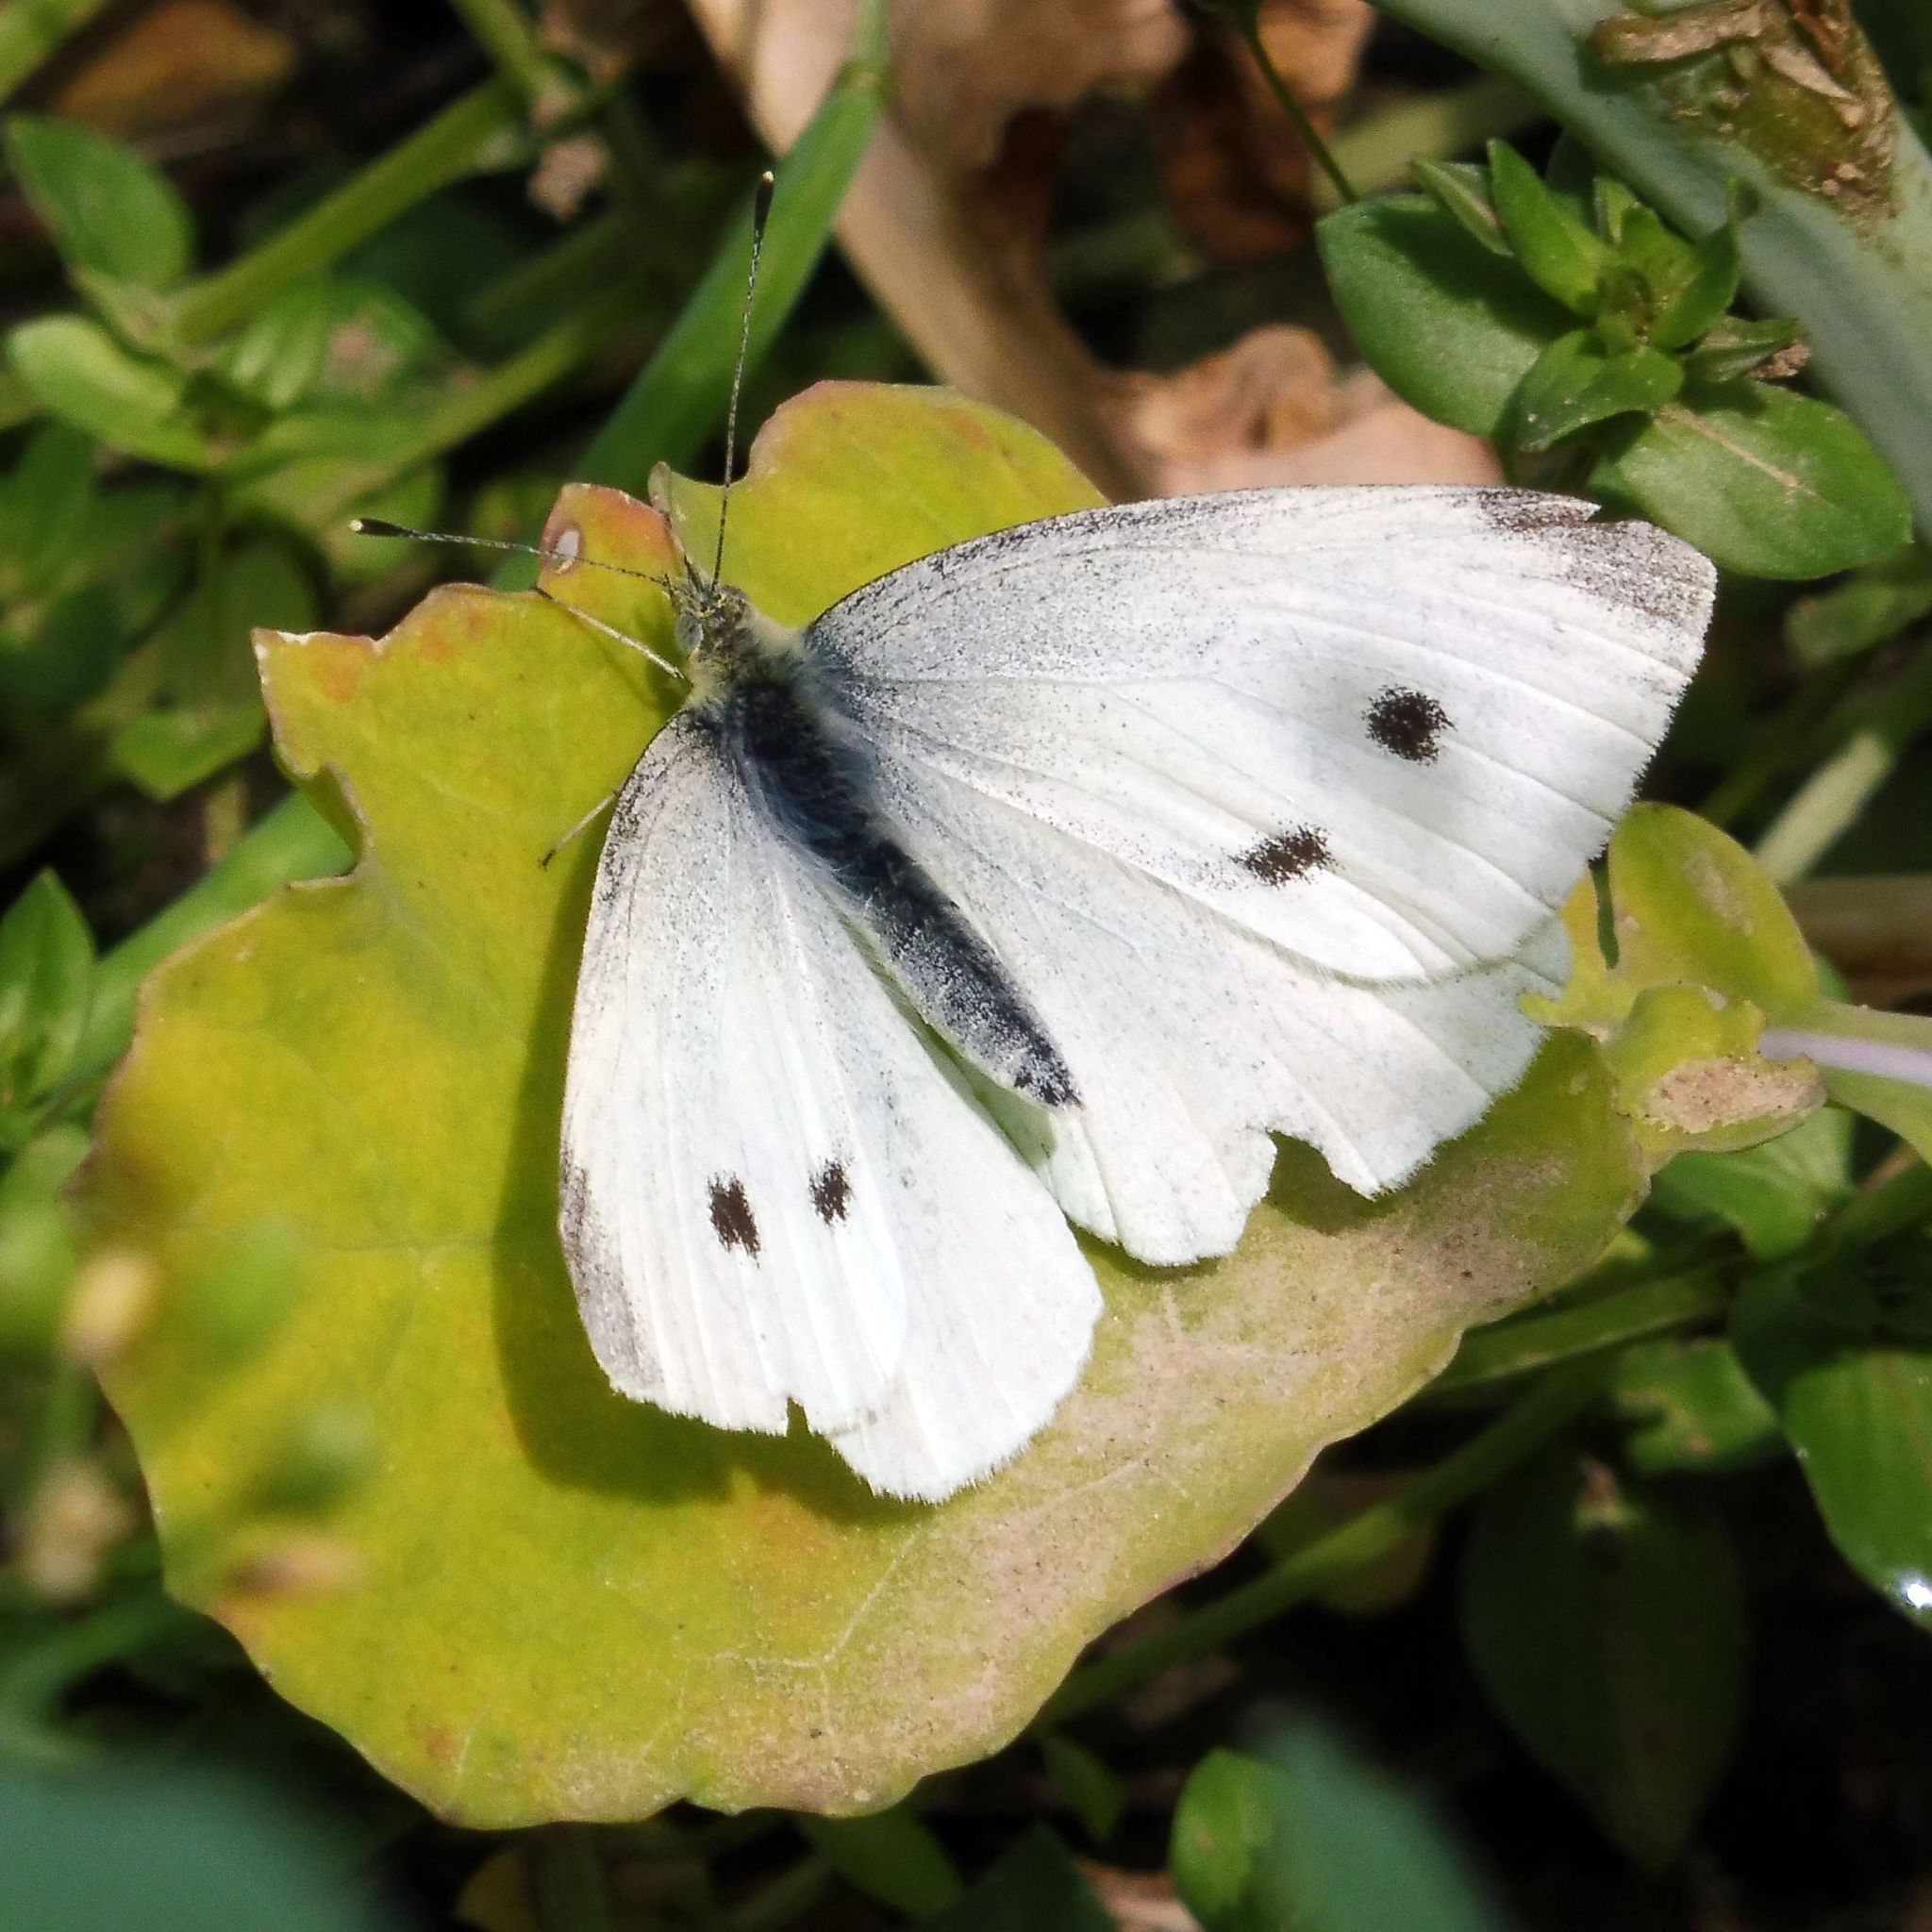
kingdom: Animalia
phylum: Arthropoda
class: Insecta
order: Lepidoptera
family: Pieridae
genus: Pieris
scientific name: Pieris rapae
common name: Small white
